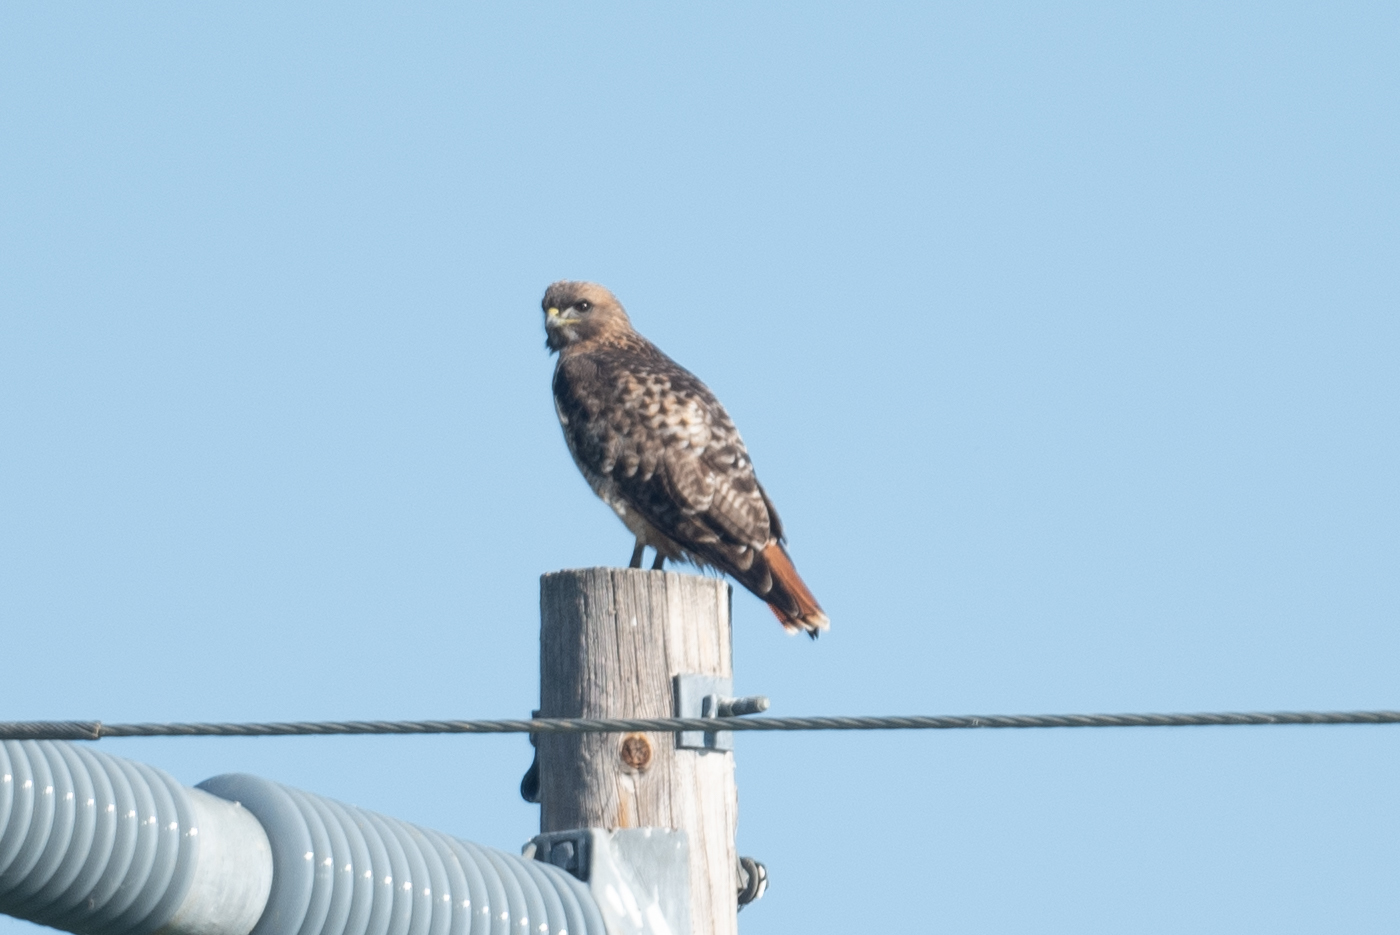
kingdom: Animalia
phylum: Chordata
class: Aves
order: Accipitriformes
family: Accipitridae
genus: Buteo
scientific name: Buteo jamaicensis
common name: Red-tailed hawk
